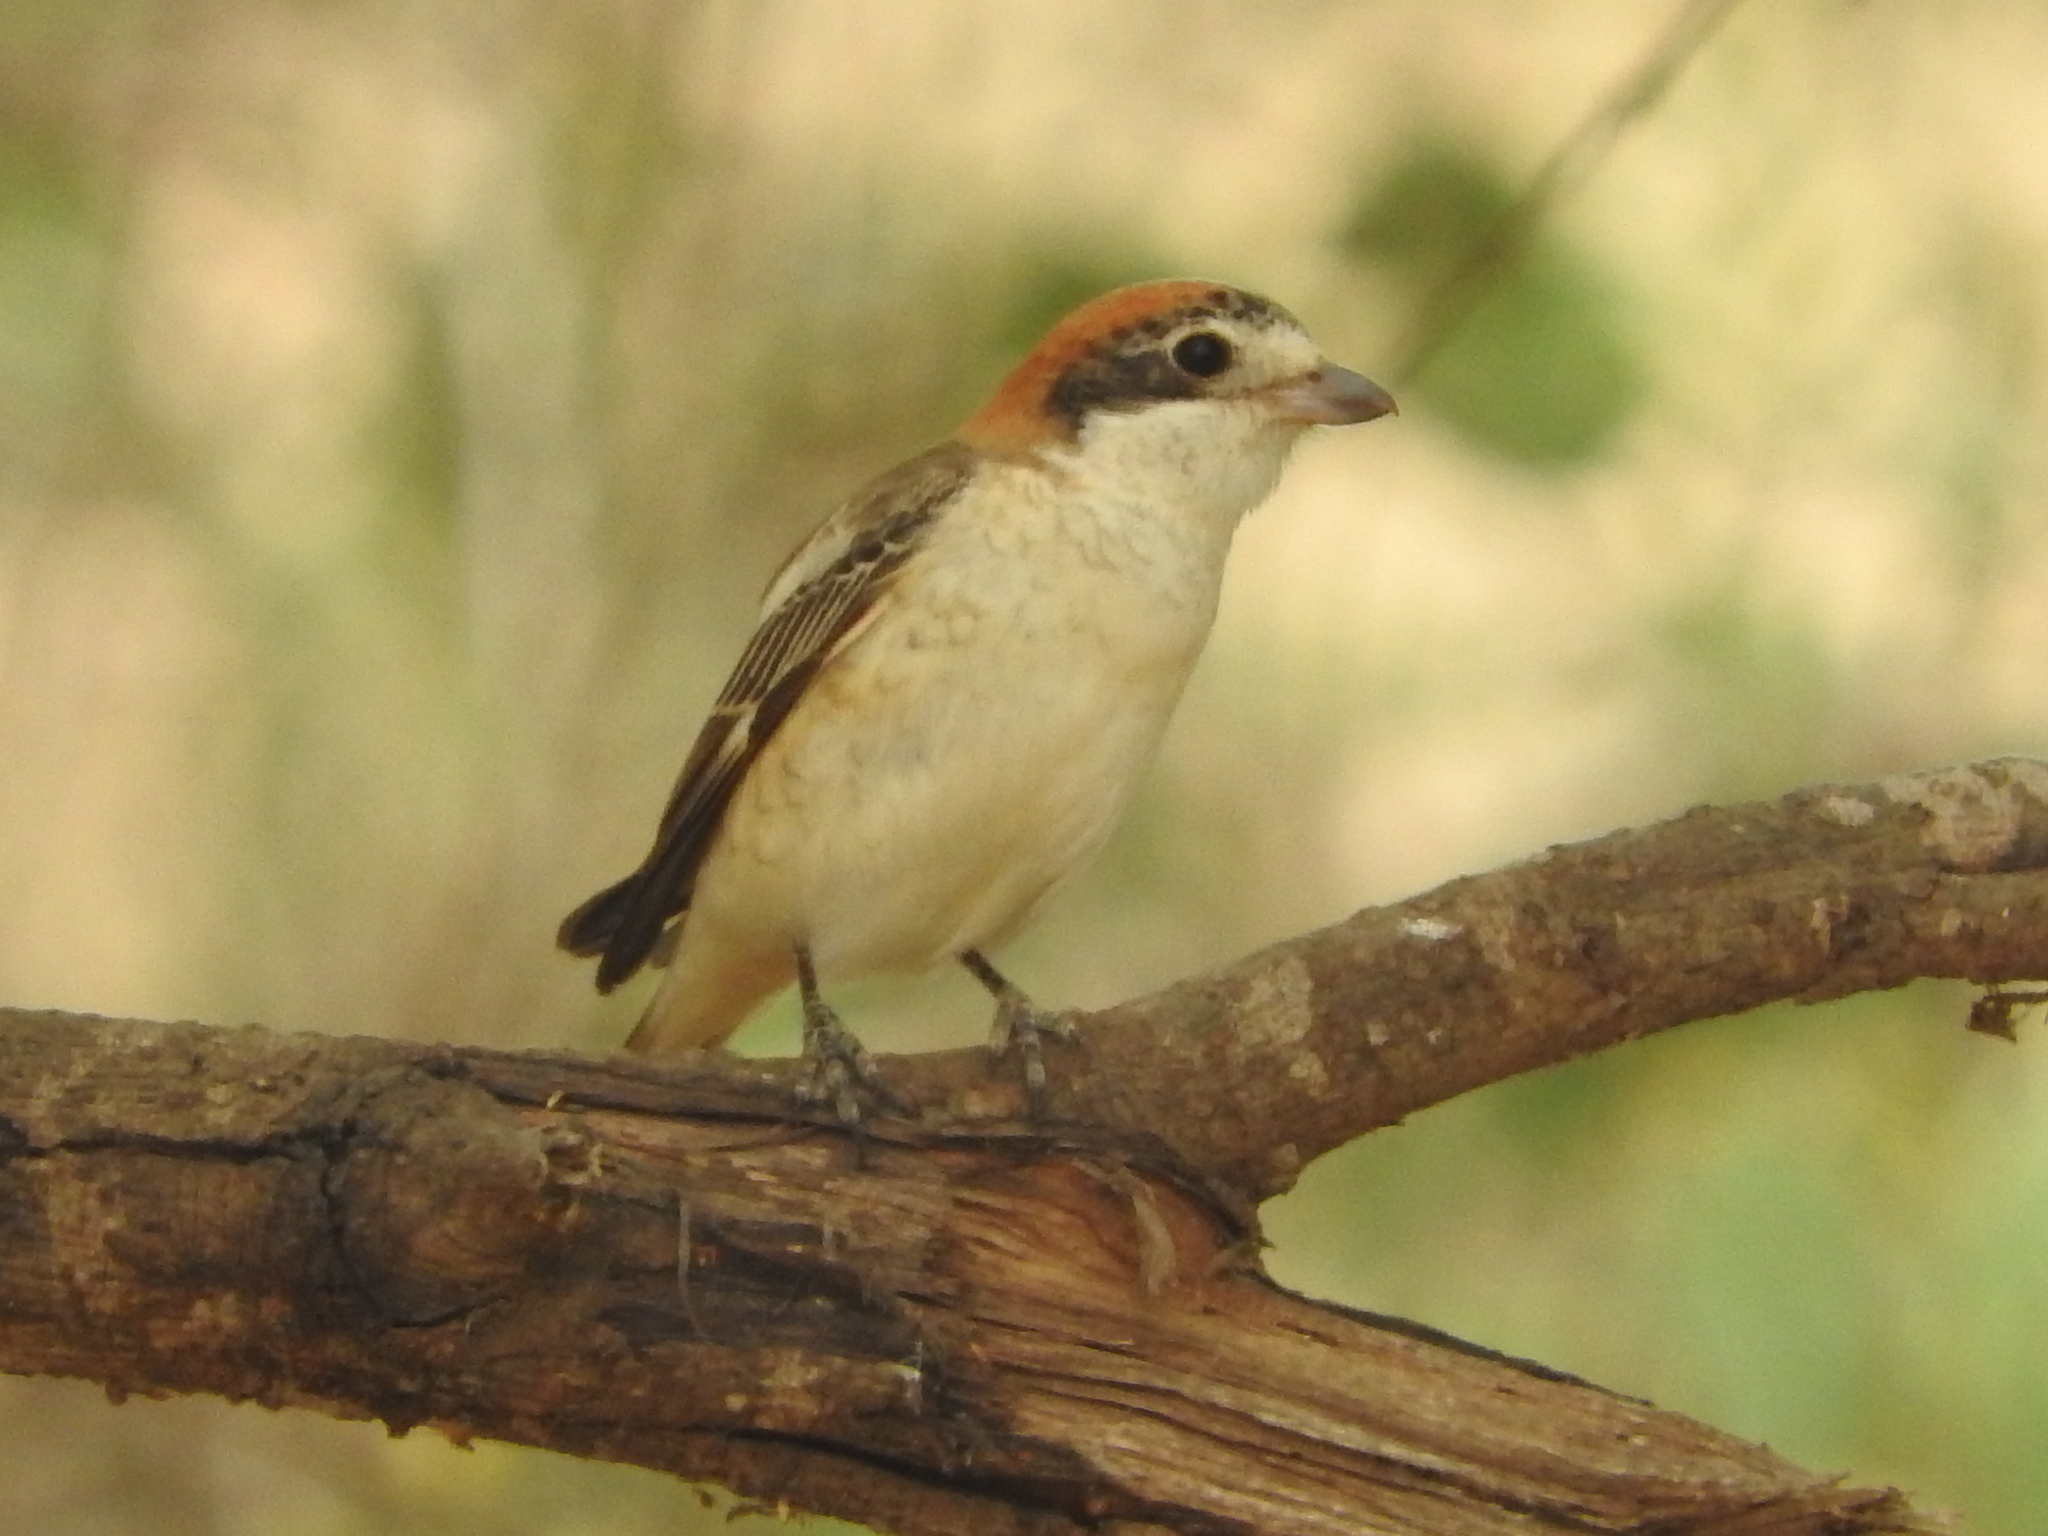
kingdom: Animalia
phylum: Chordata
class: Aves
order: Passeriformes
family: Laniidae
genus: Lanius
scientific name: Lanius senator
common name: Woodchat shrike
